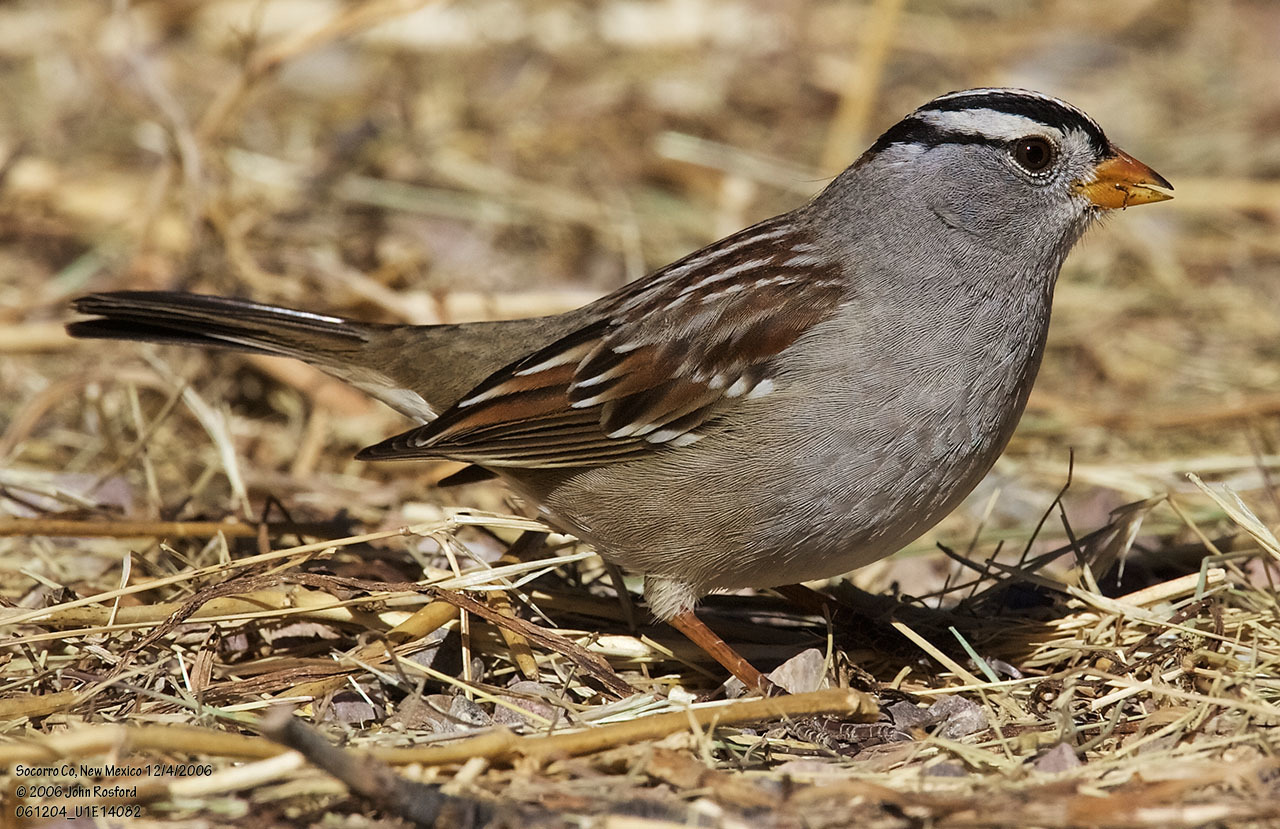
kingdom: Animalia
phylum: Chordata
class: Aves
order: Passeriformes
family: Passerellidae
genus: Zonotrichia
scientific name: Zonotrichia leucophrys
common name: White-crowned sparrow
